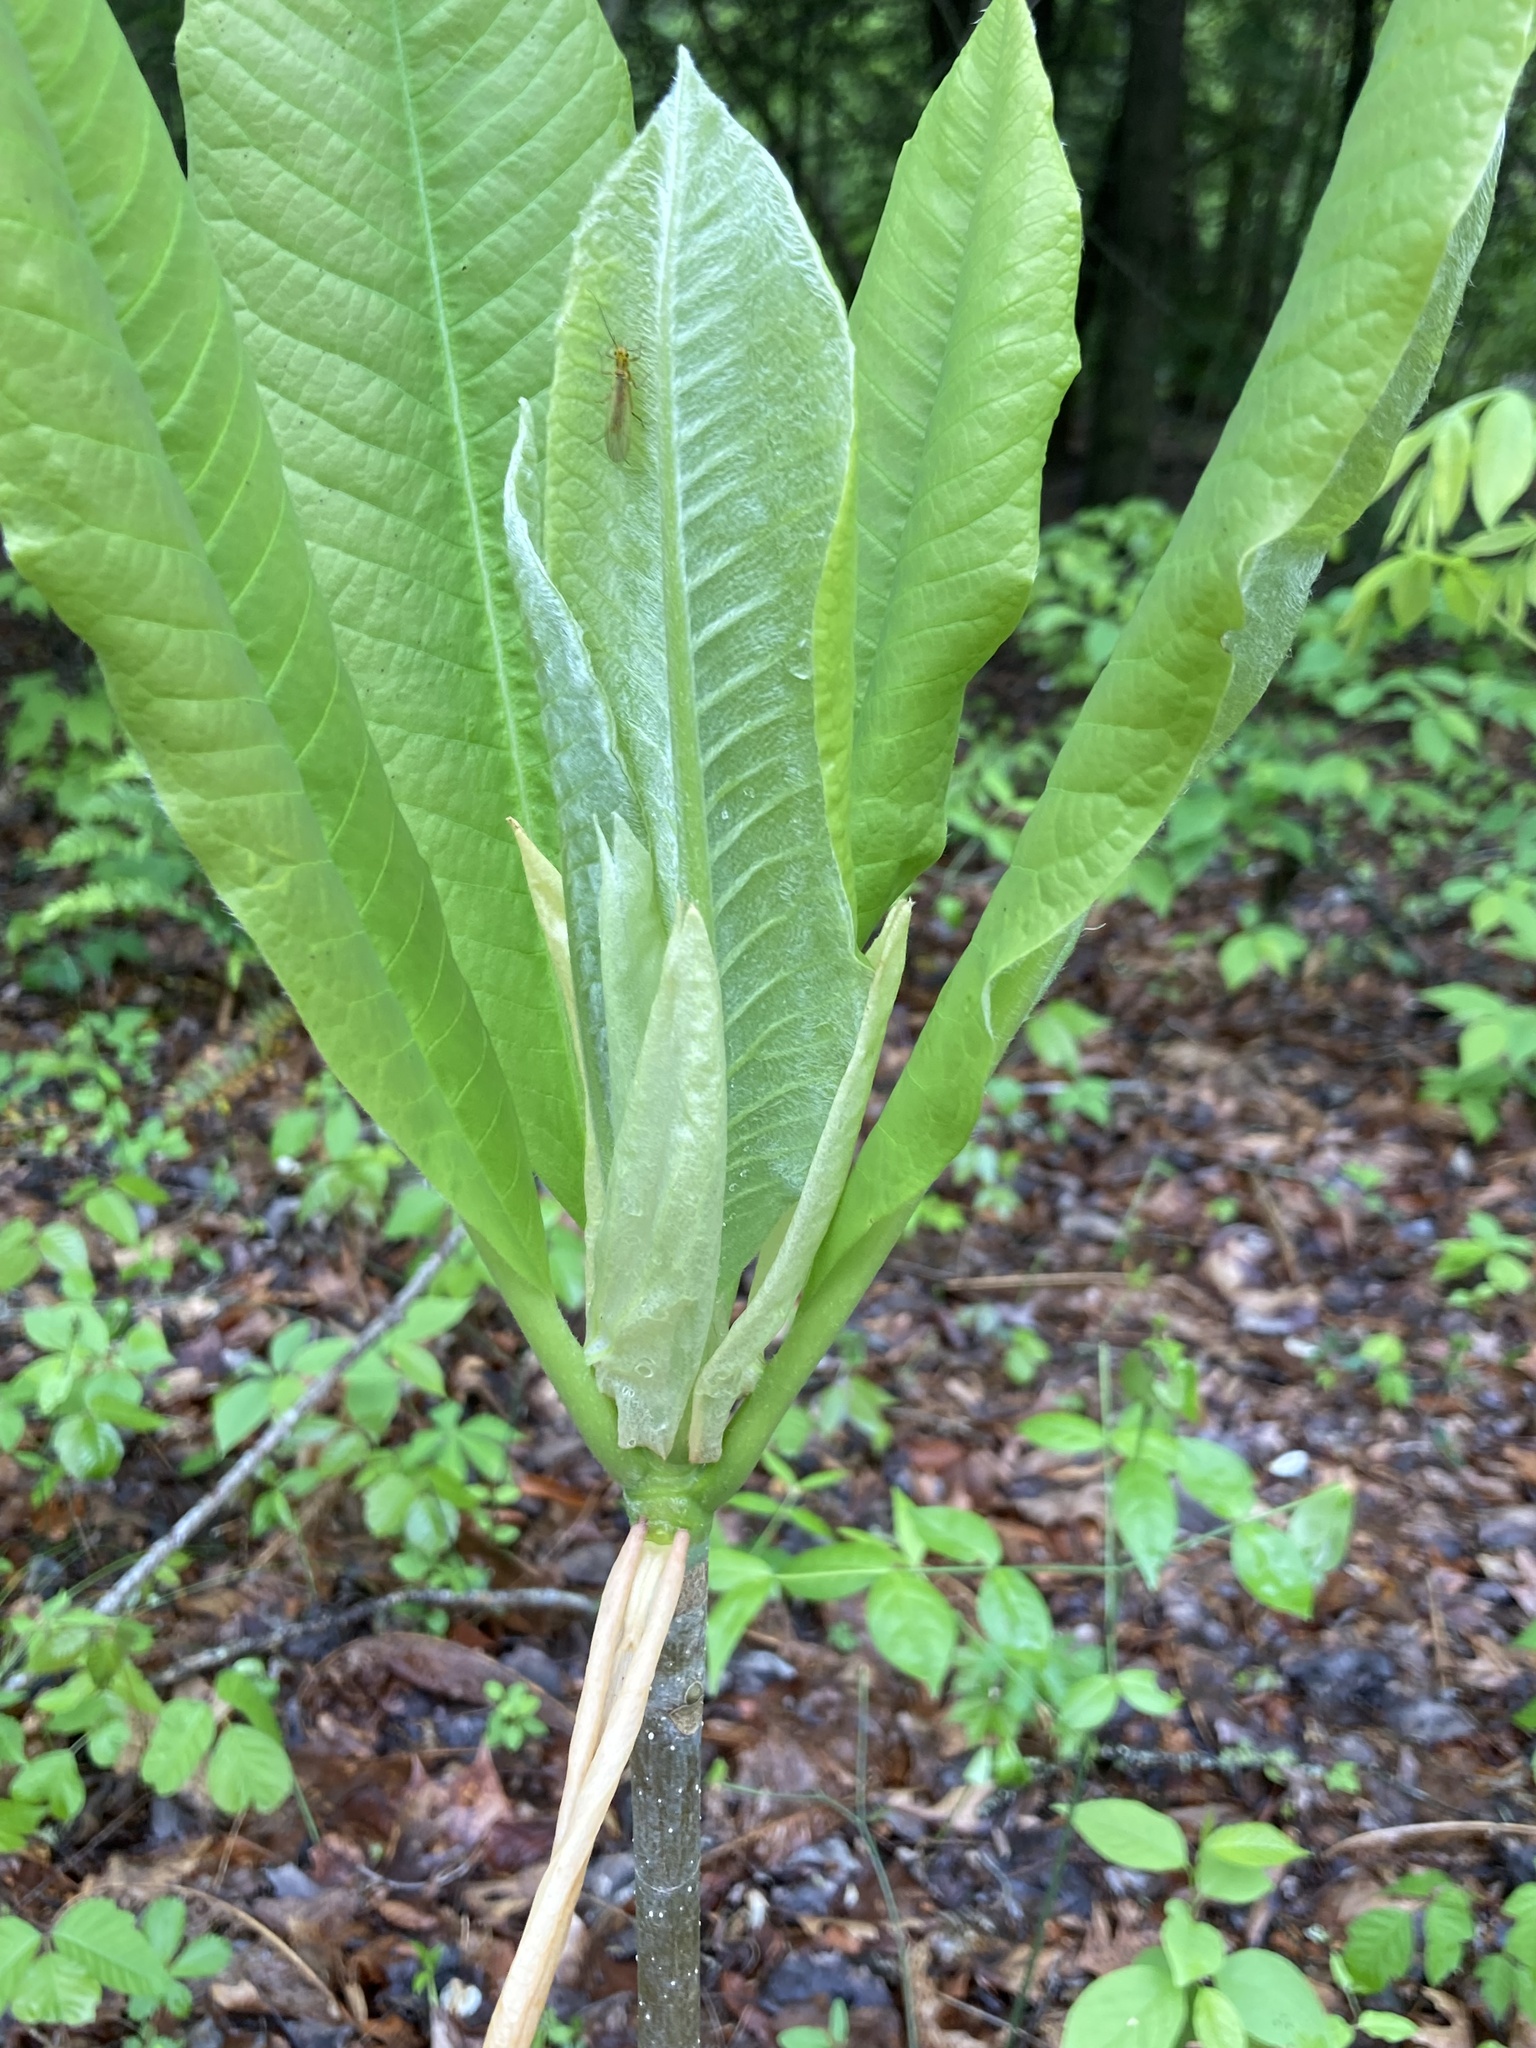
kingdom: Plantae
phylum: Tracheophyta
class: Magnoliopsida
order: Magnoliales
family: Magnoliaceae
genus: Magnolia
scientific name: Magnolia tripetala
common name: Umbrella magnolia
